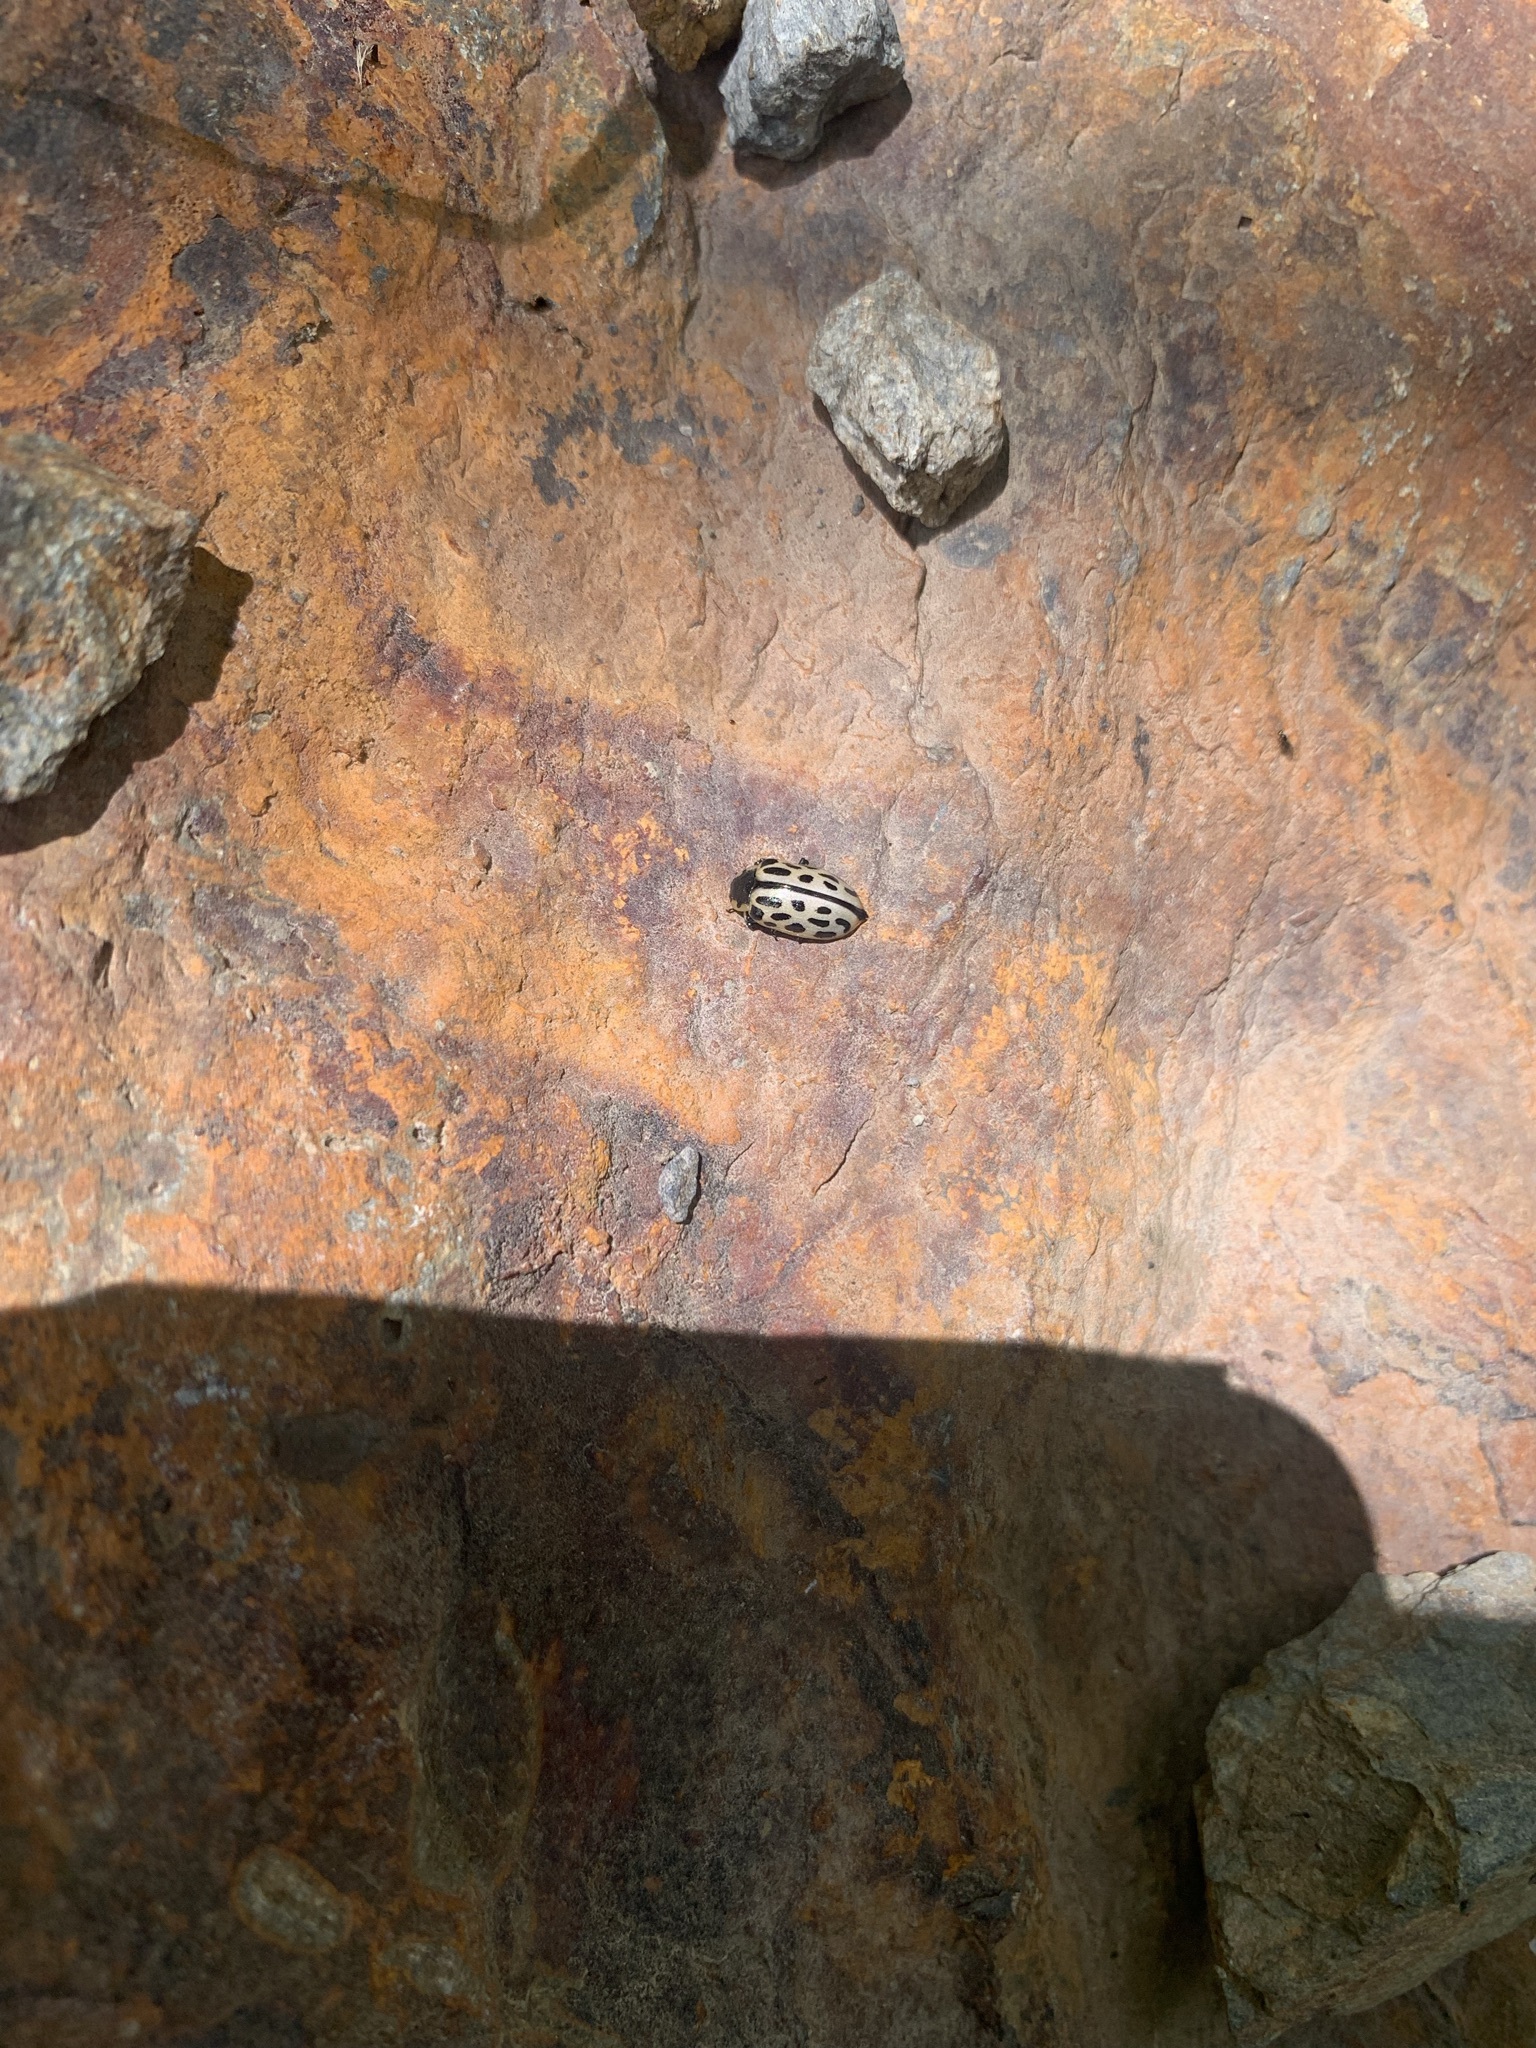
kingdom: Animalia
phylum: Arthropoda
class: Insecta
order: Coleoptera
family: Chrysomelidae
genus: Chrysomela
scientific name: Chrysomela vigintipunctata
